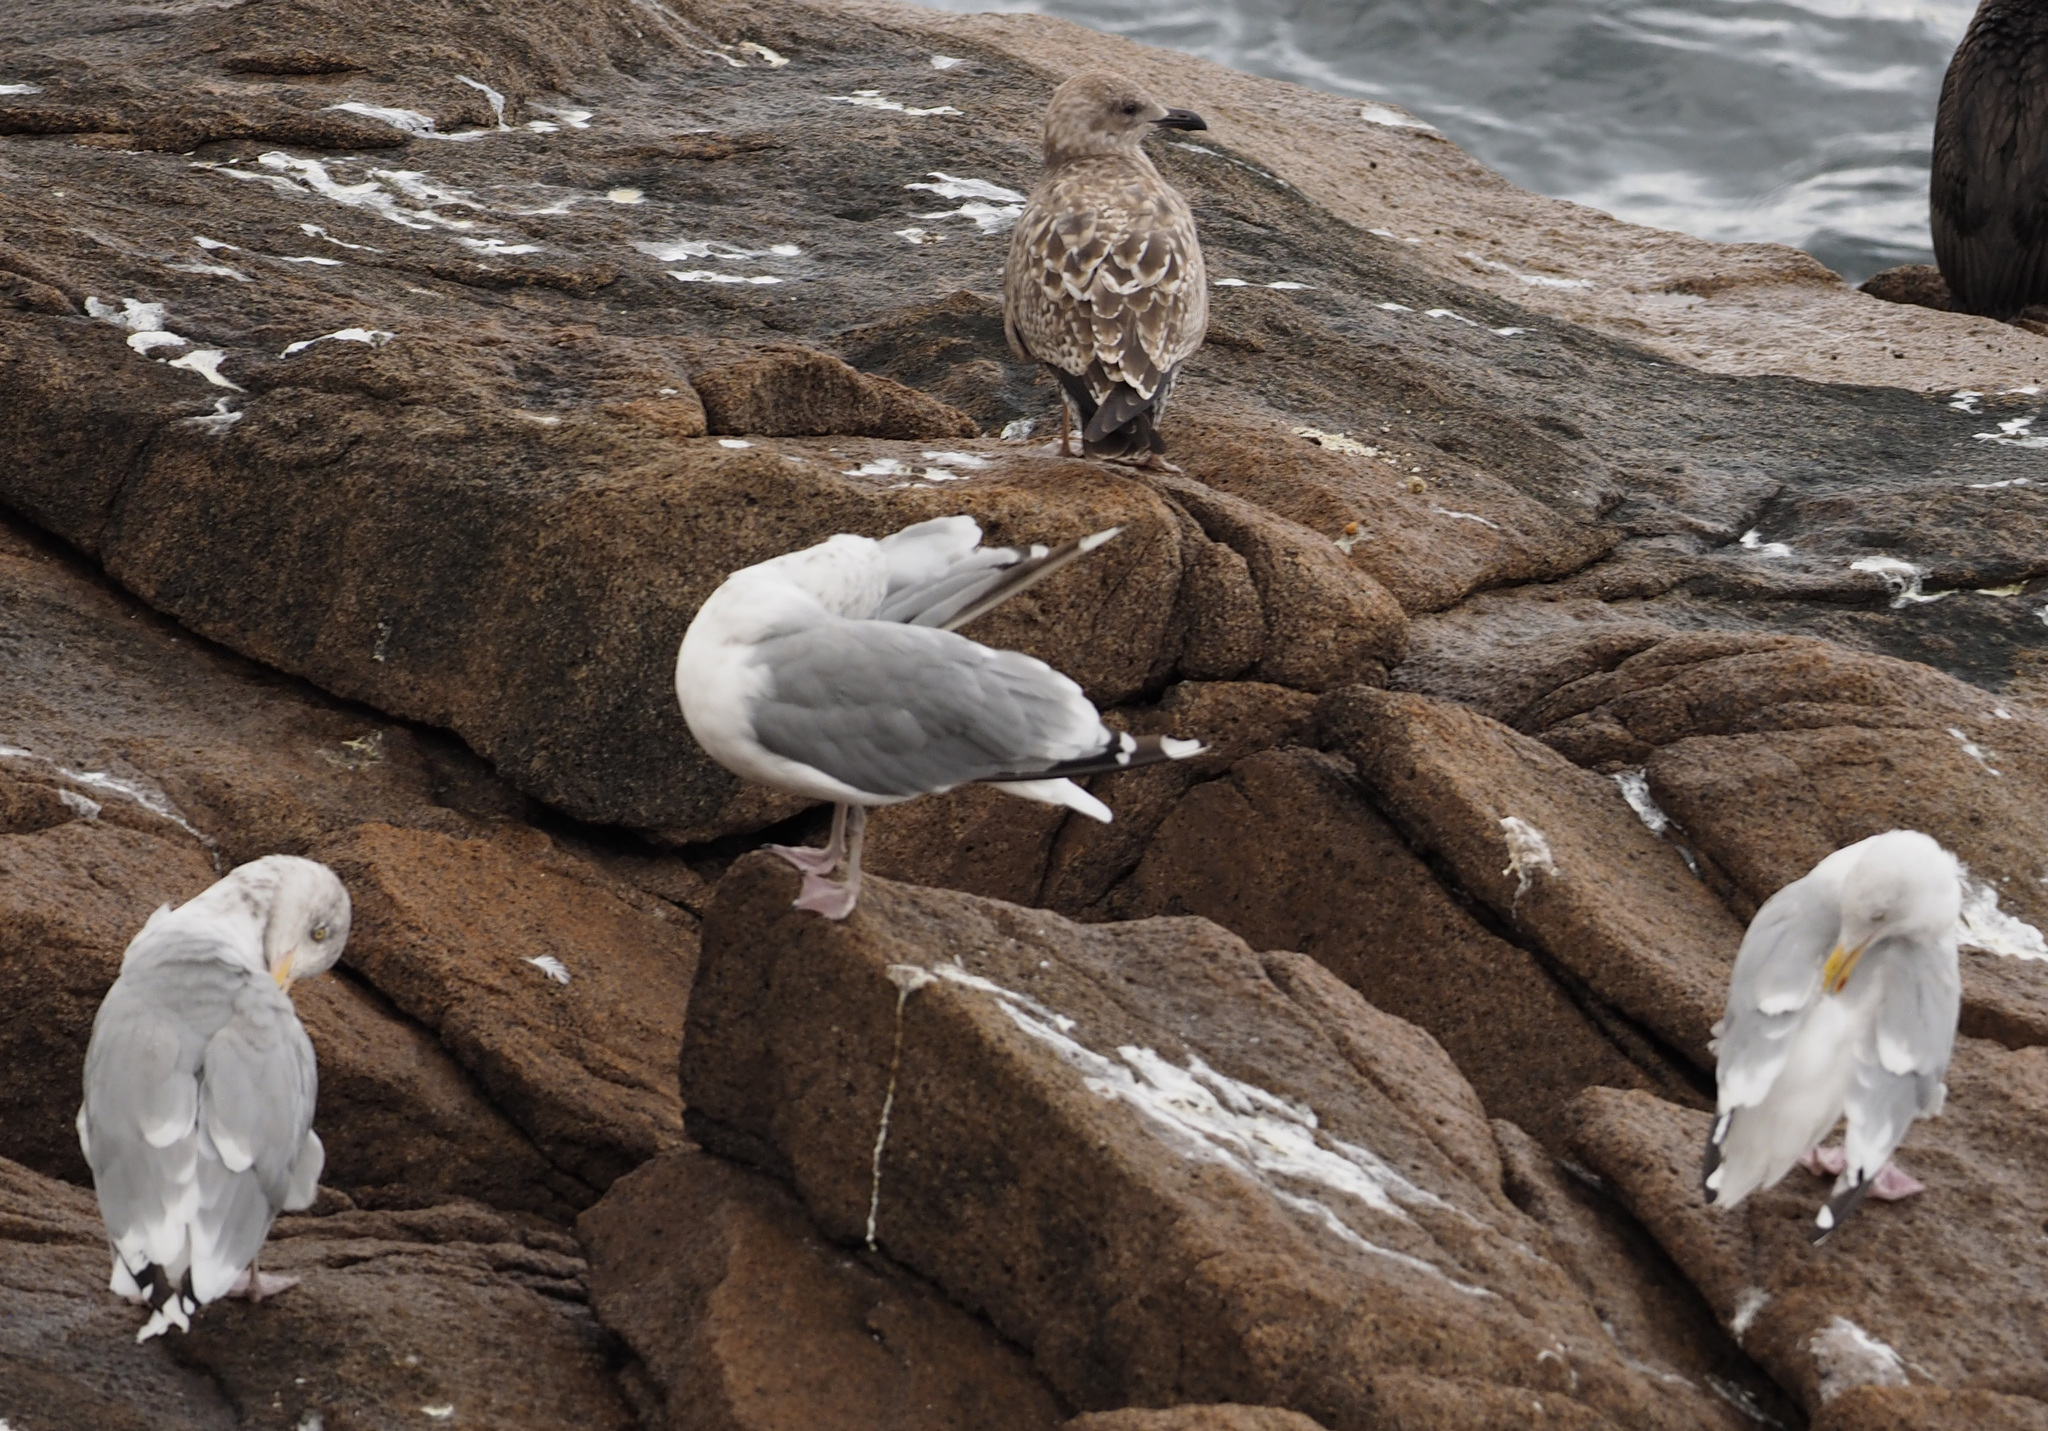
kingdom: Animalia
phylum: Chordata
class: Aves
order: Charadriiformes
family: Laridae
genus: Larus
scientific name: Larus argentatus
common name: Herring gull
